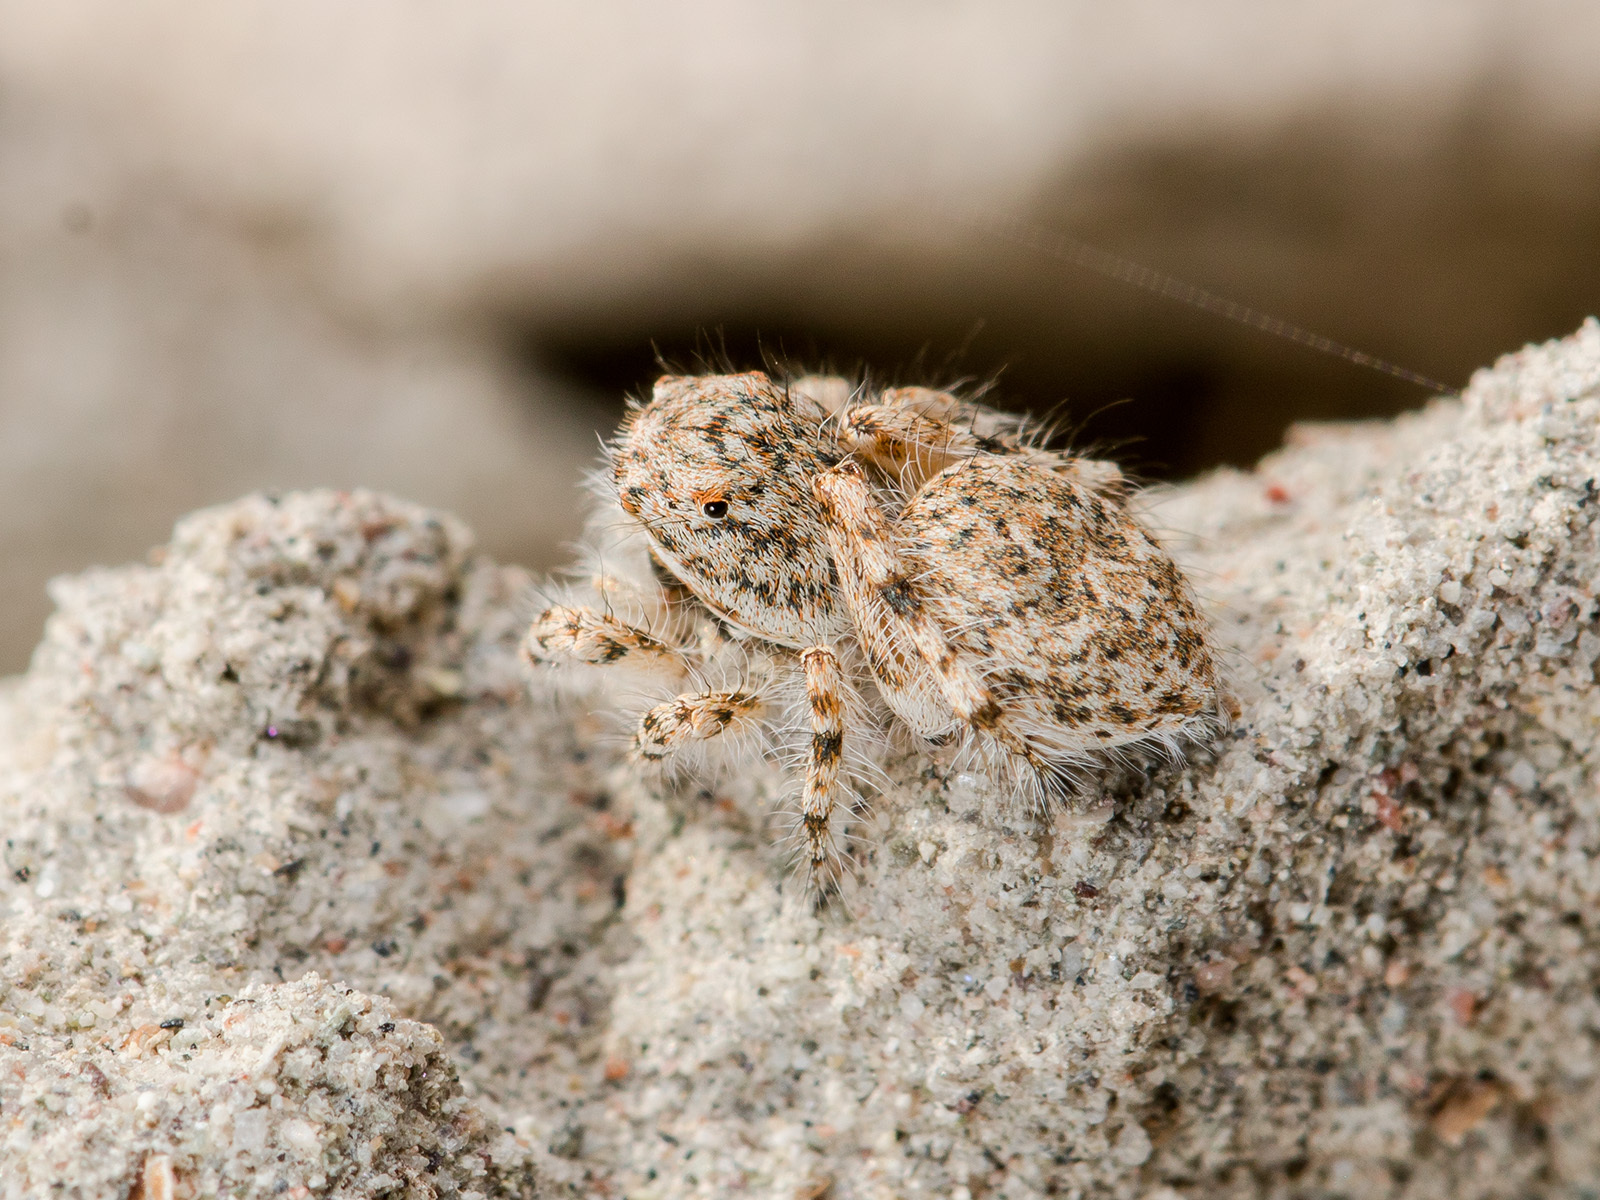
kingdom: Animalia
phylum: Arthropoda
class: Arachnida
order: Araneae
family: Salticidae
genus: Yllenus
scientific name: Yllenus uiguricus
